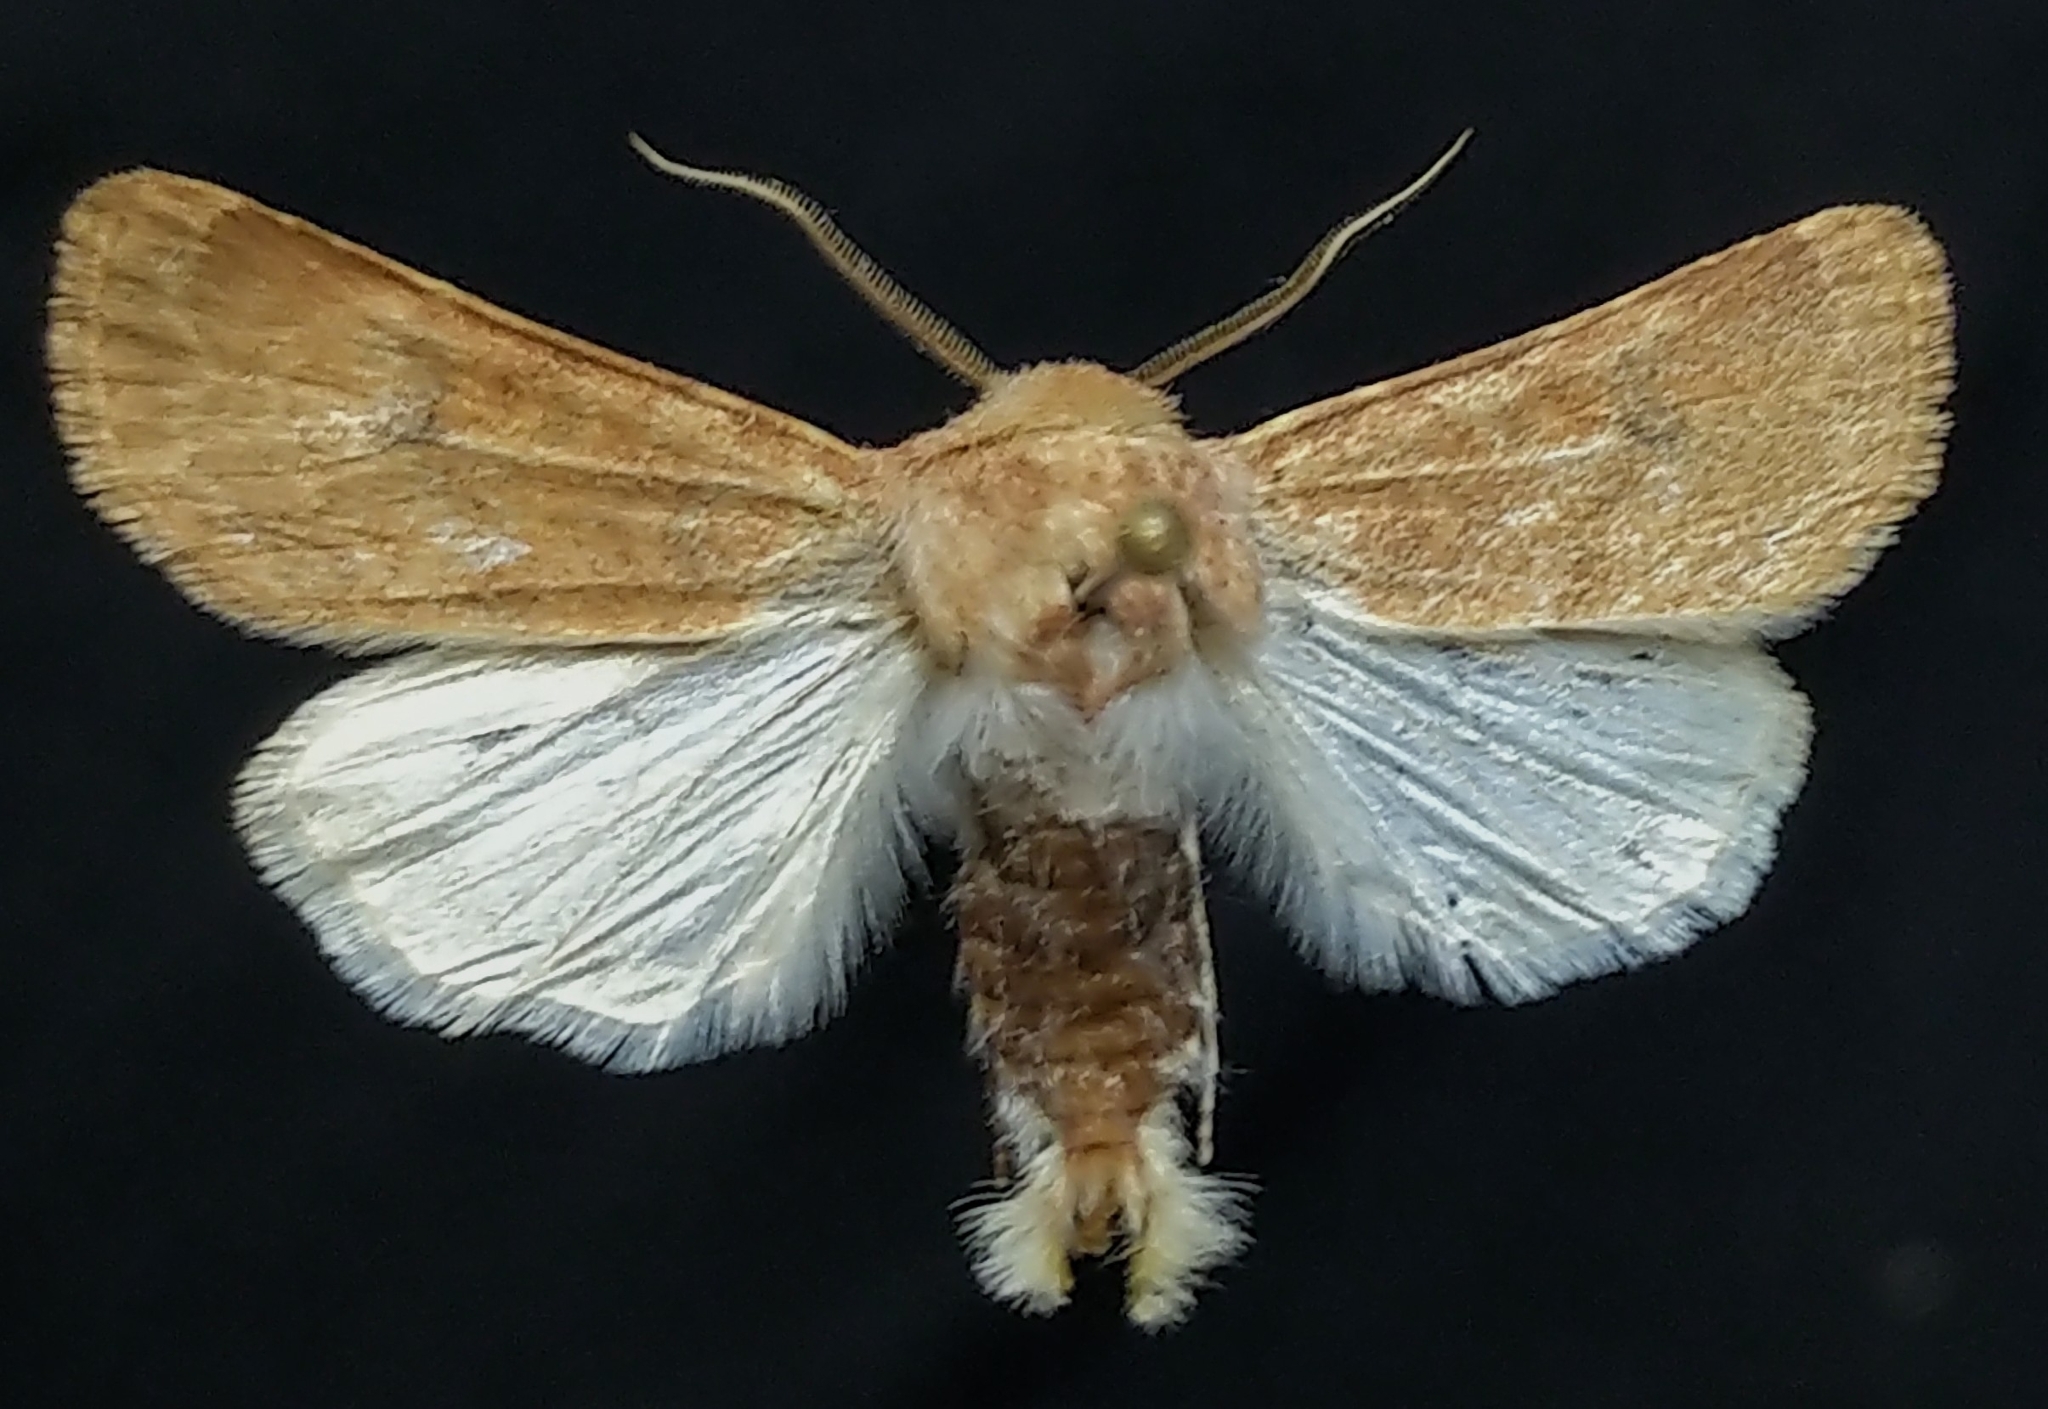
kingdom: Animalia
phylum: Arthropoda
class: Insecta
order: Lepidoptera
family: Noctuidae
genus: Euxoa
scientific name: Euxoa siccata
